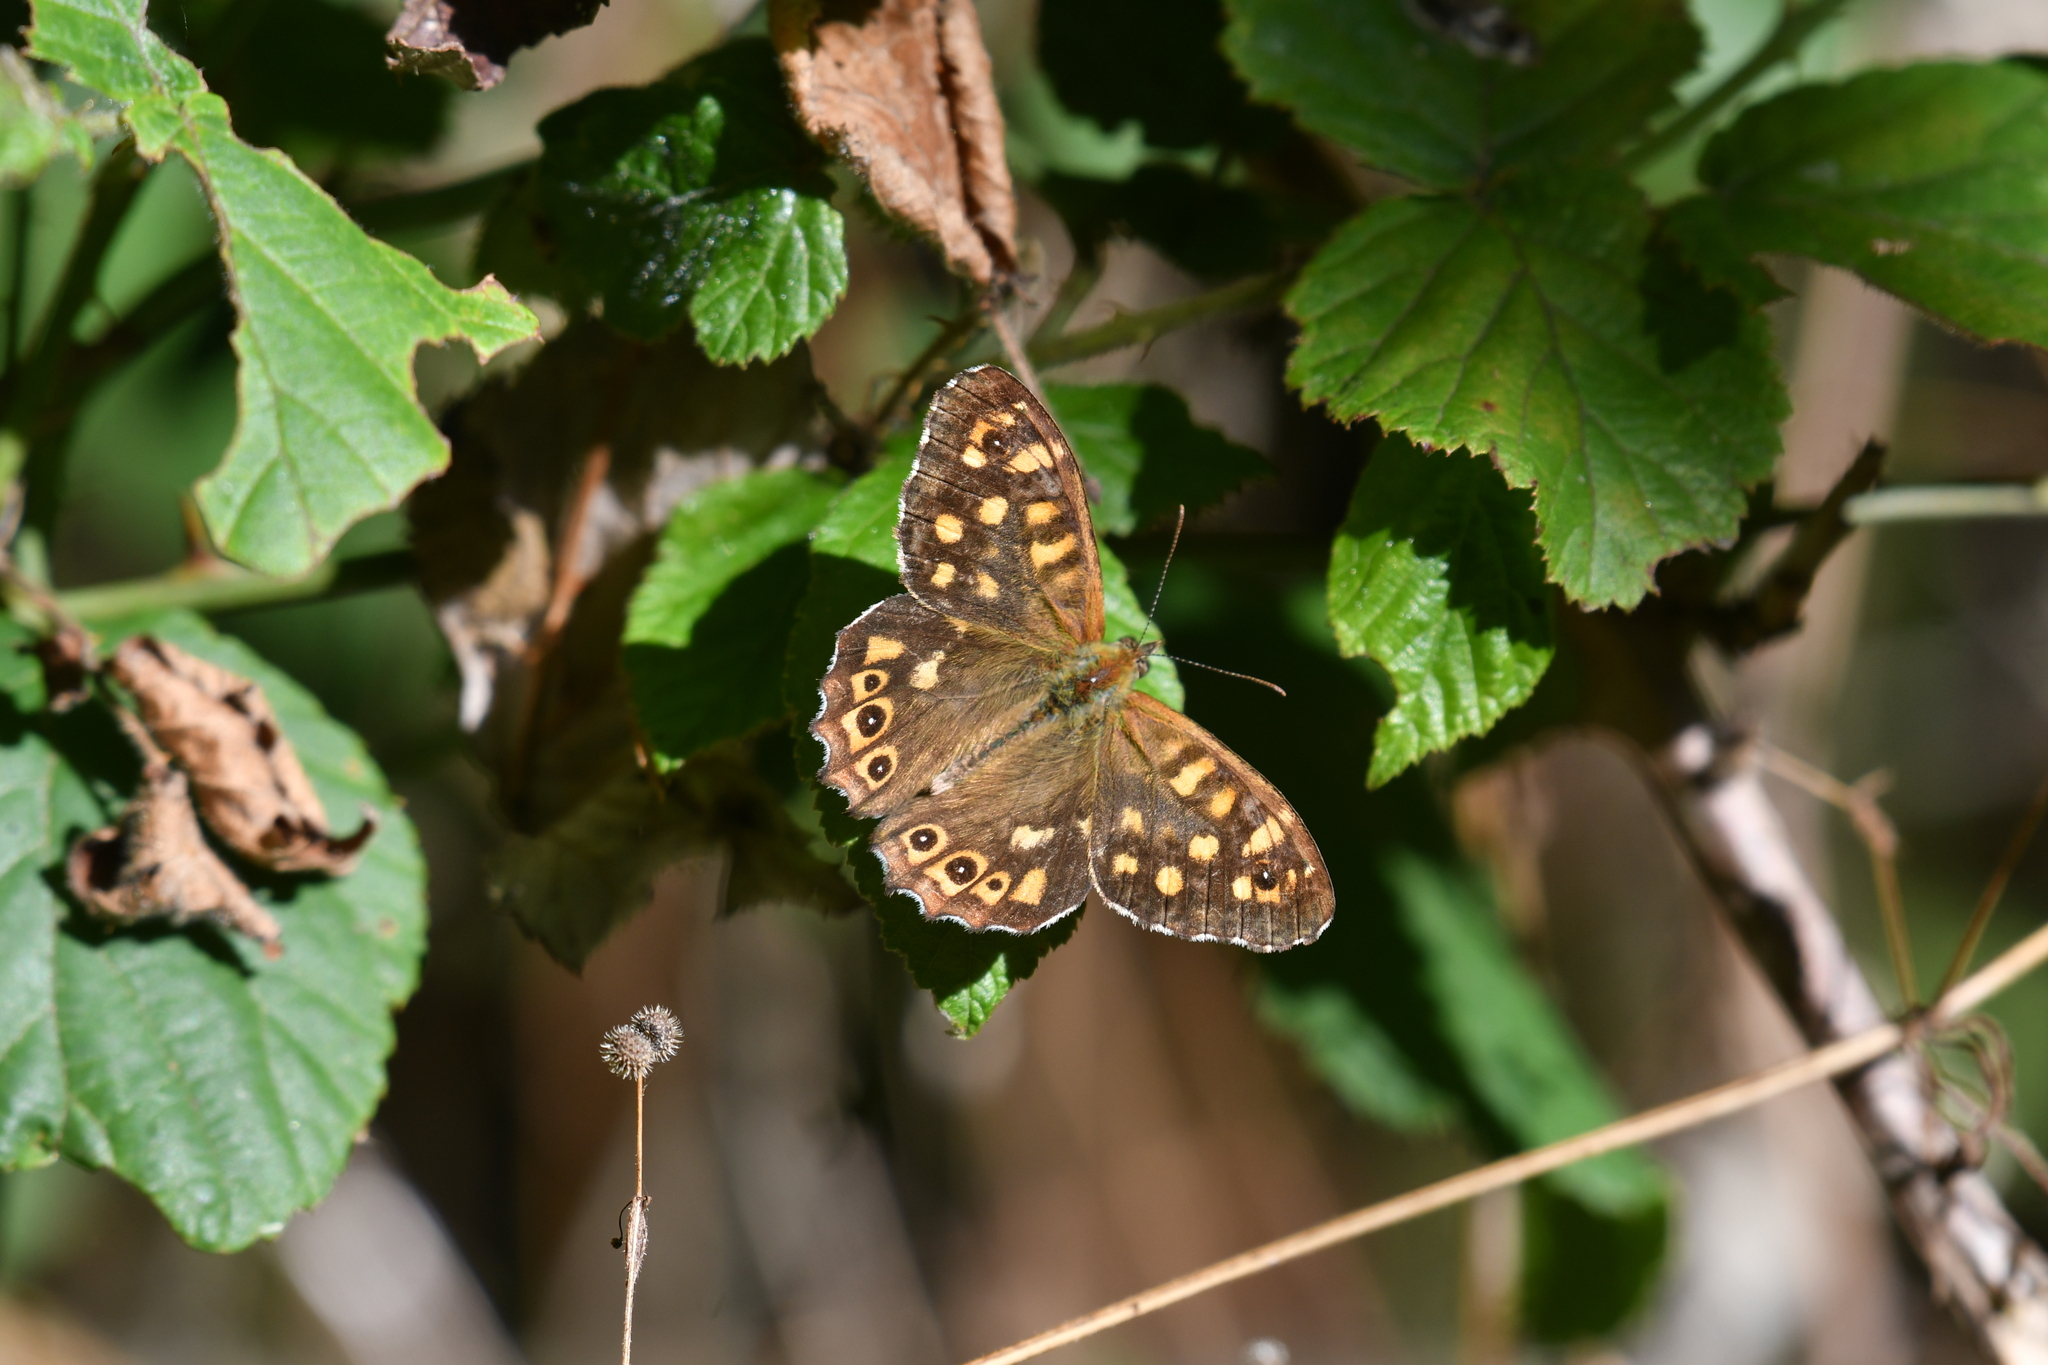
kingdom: Animalia
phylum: Arthropoda
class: Insecta
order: Lepidoptera
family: Nymphalidae
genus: Pararge
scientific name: Pararge aegeria
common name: Speckled wood
